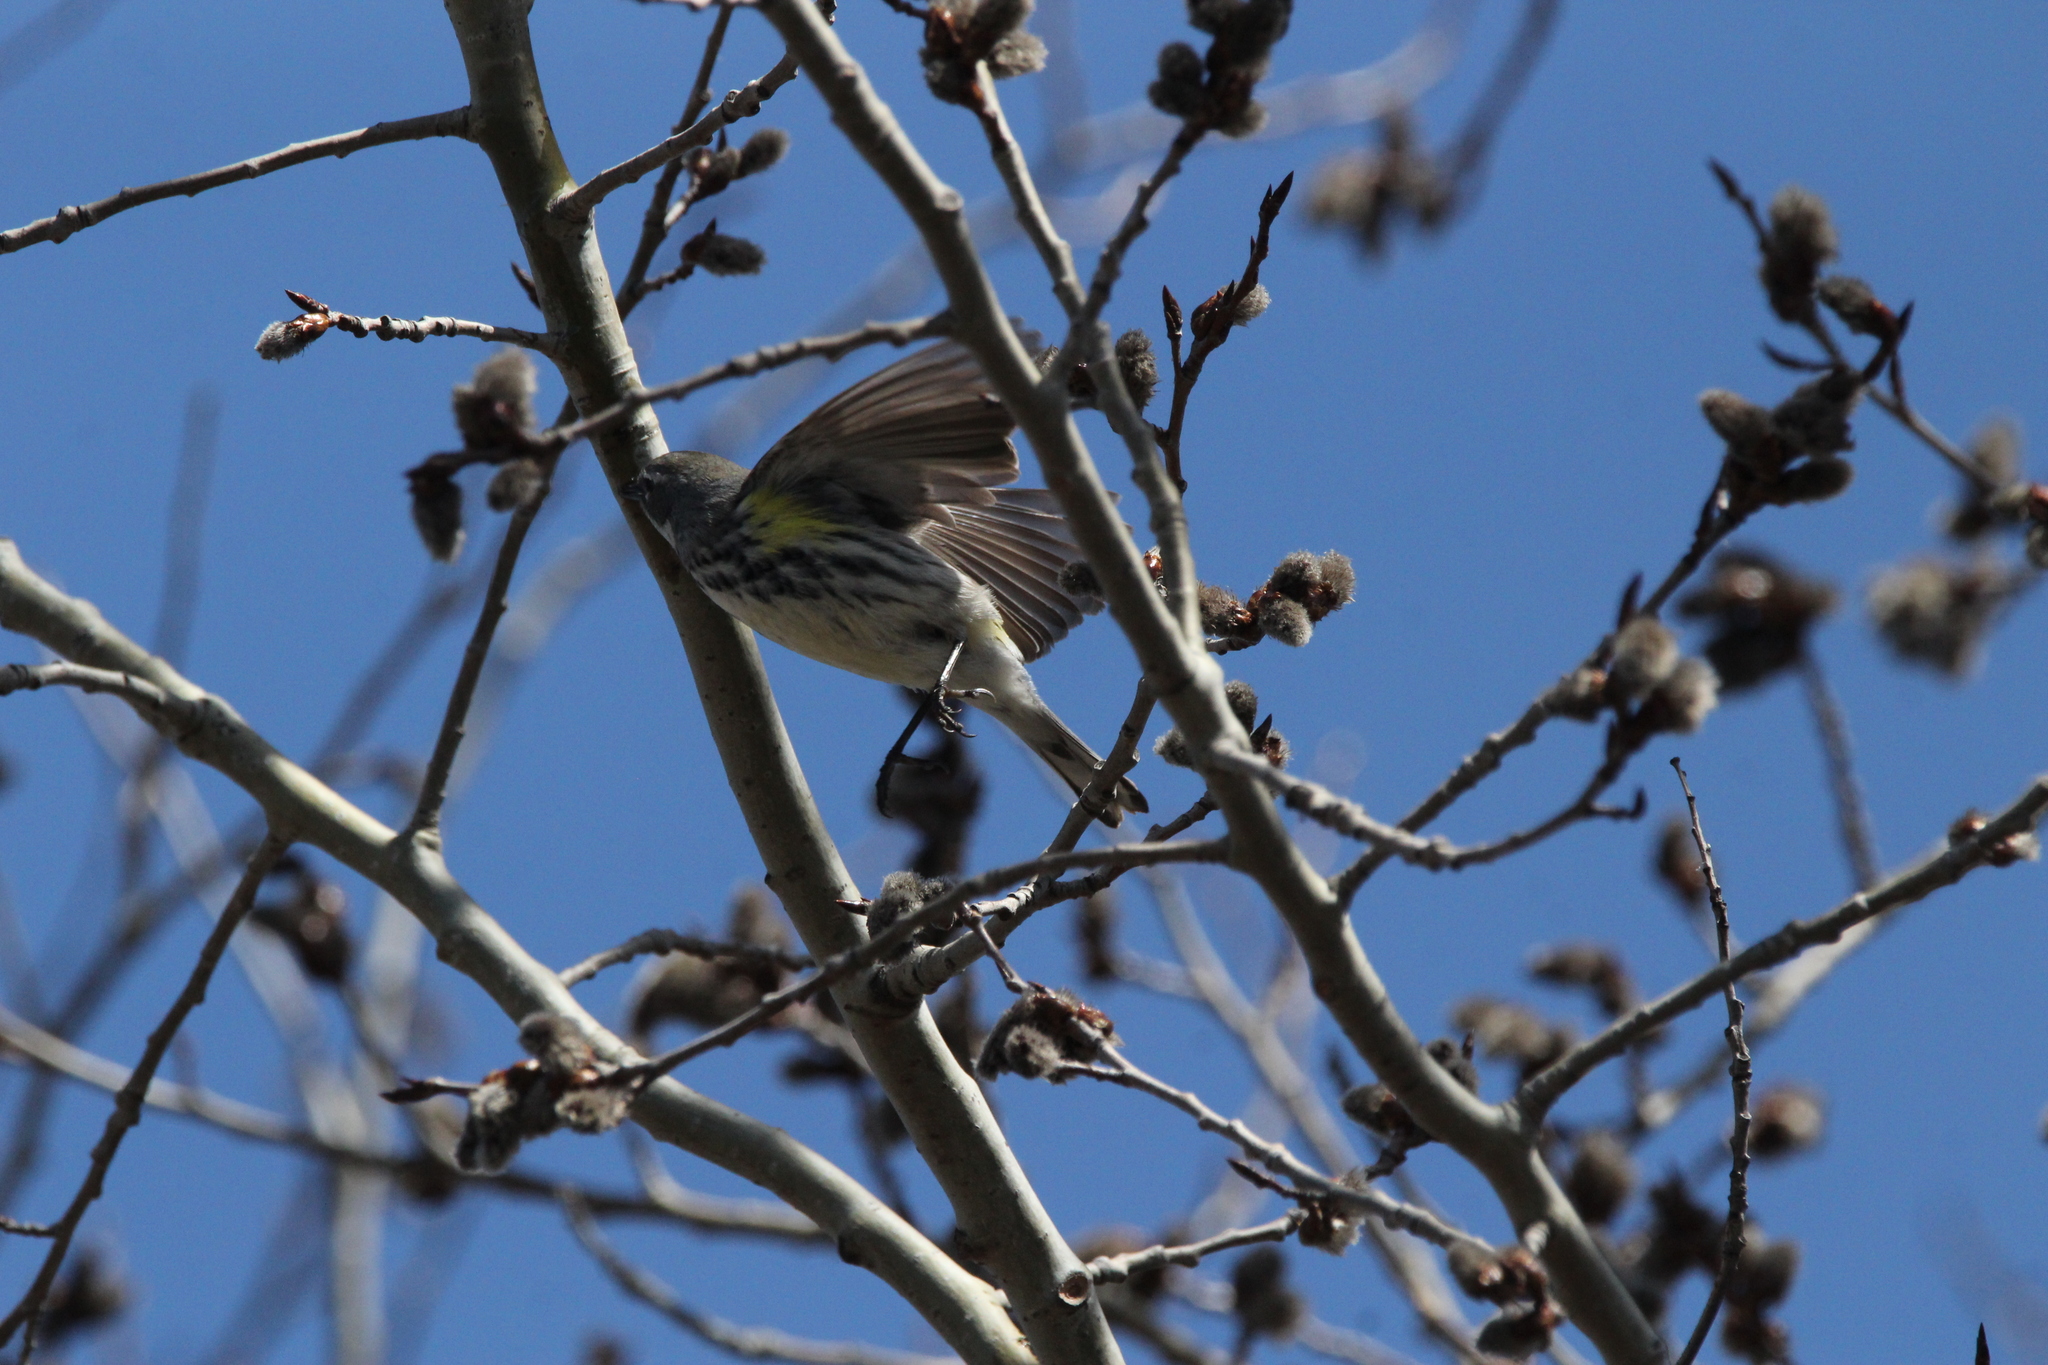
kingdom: Animalia
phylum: Chordata
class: Aves
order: Passeriformes
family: Parulidae
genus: Setophaga
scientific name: Setophaga coronata
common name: Myrtle warbler
